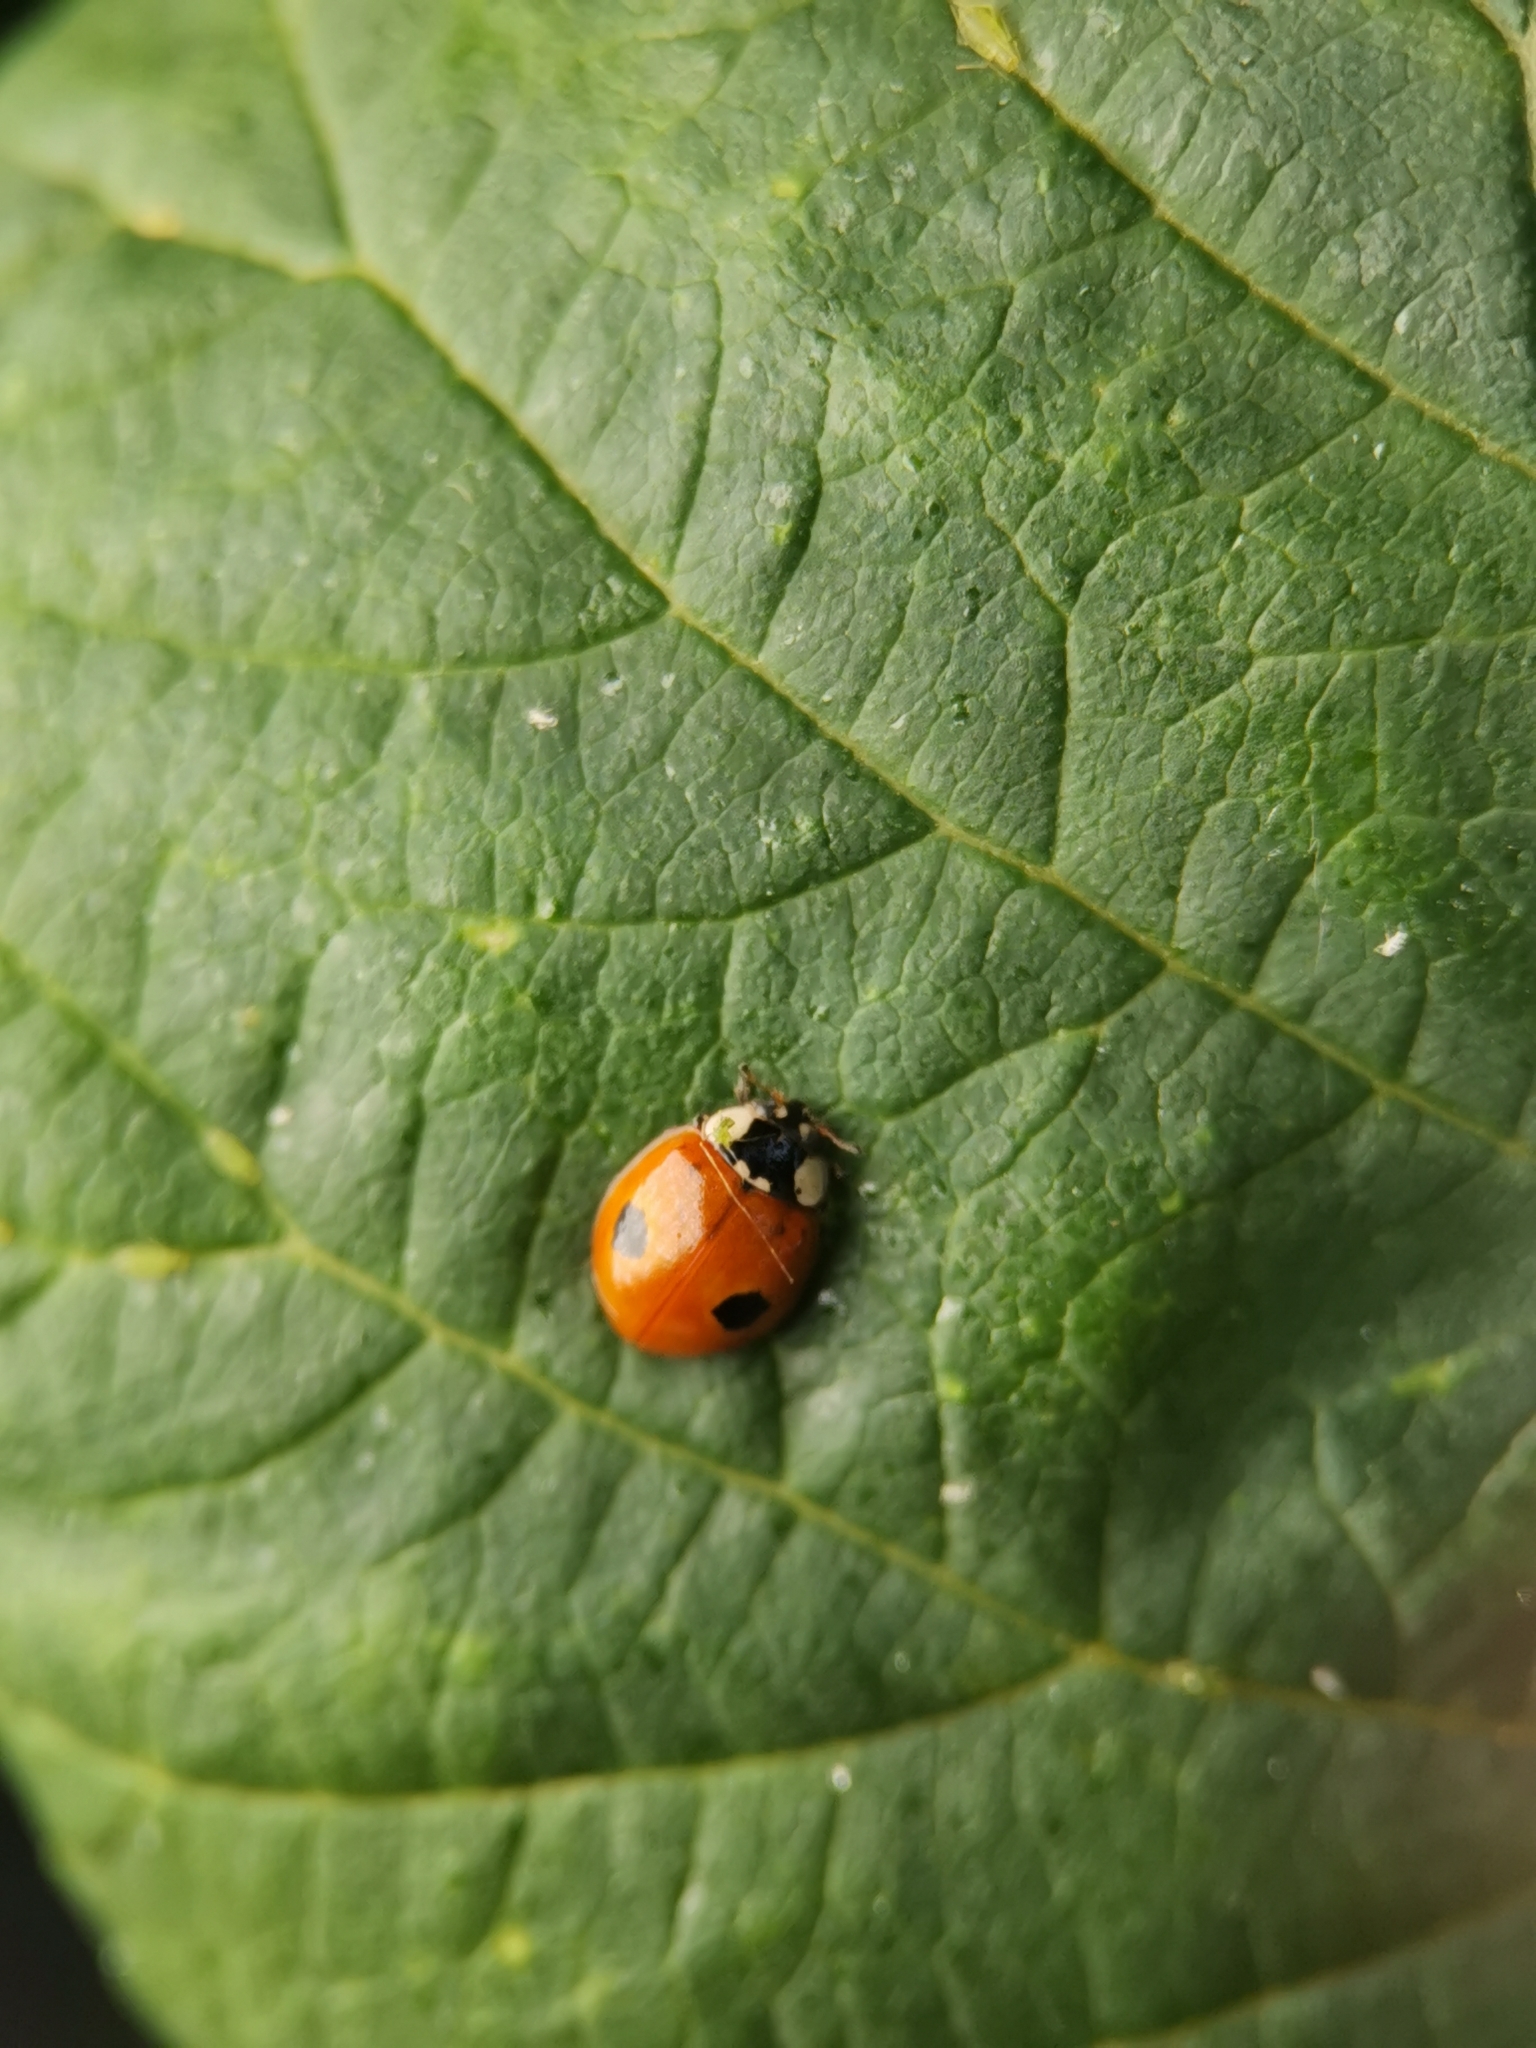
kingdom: Animalia
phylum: Arthropoda
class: Insecta
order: Coleoptera
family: Coccinellidae
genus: Adalia
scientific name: Adalia bipunctata
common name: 2-spot ladybird
